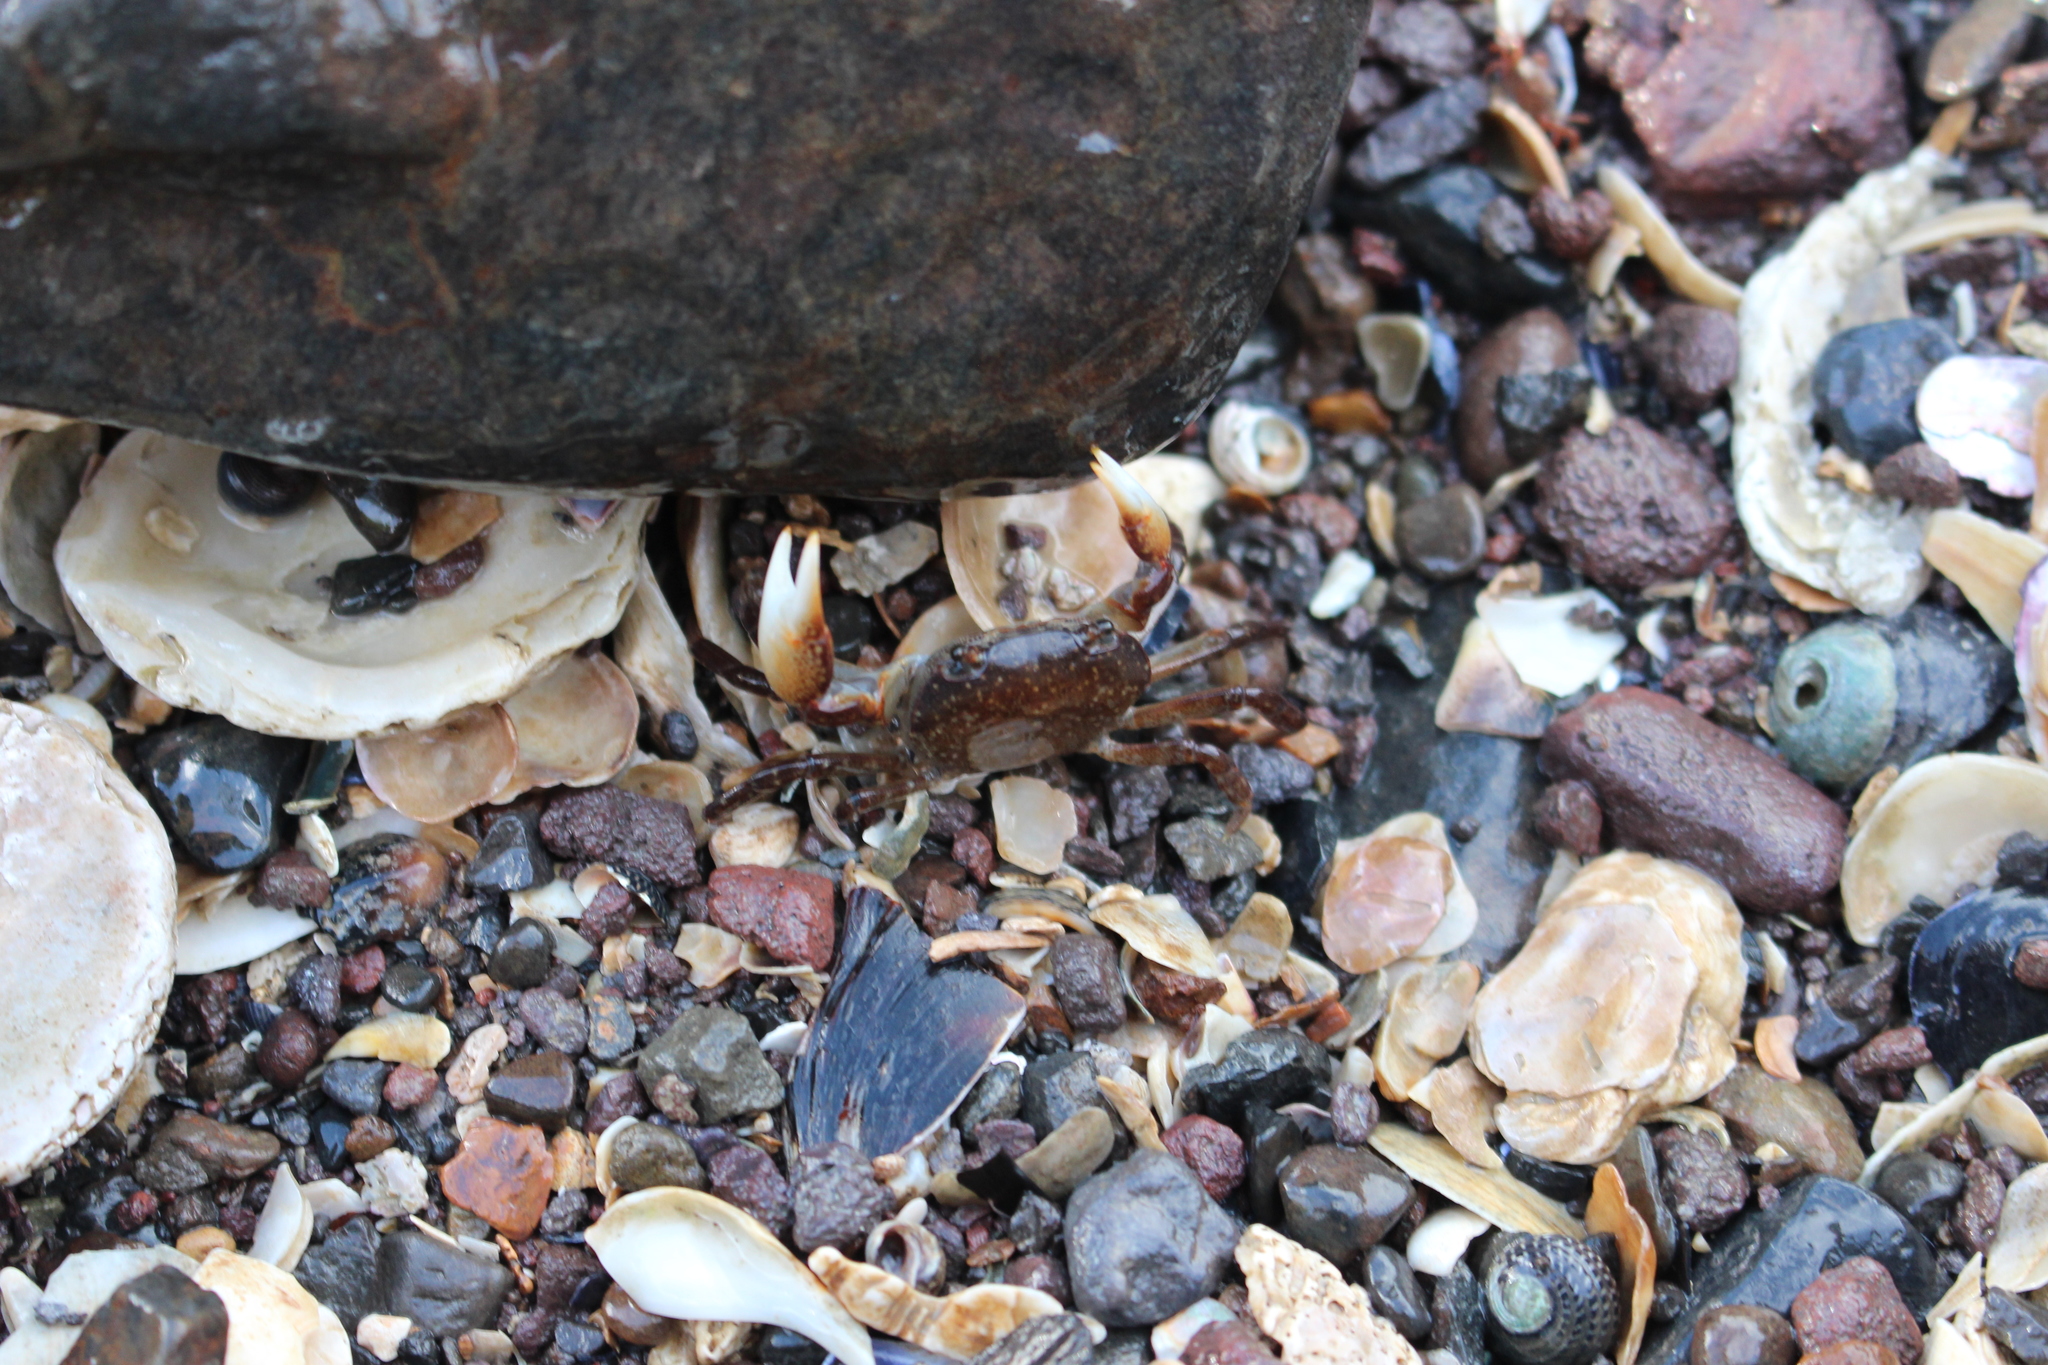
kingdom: Animalia
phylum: Arthropoda
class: Malacostraca
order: Decapoda
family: Varunidae
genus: Cyclograpsus
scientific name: Cyclograpsus lavauxi
